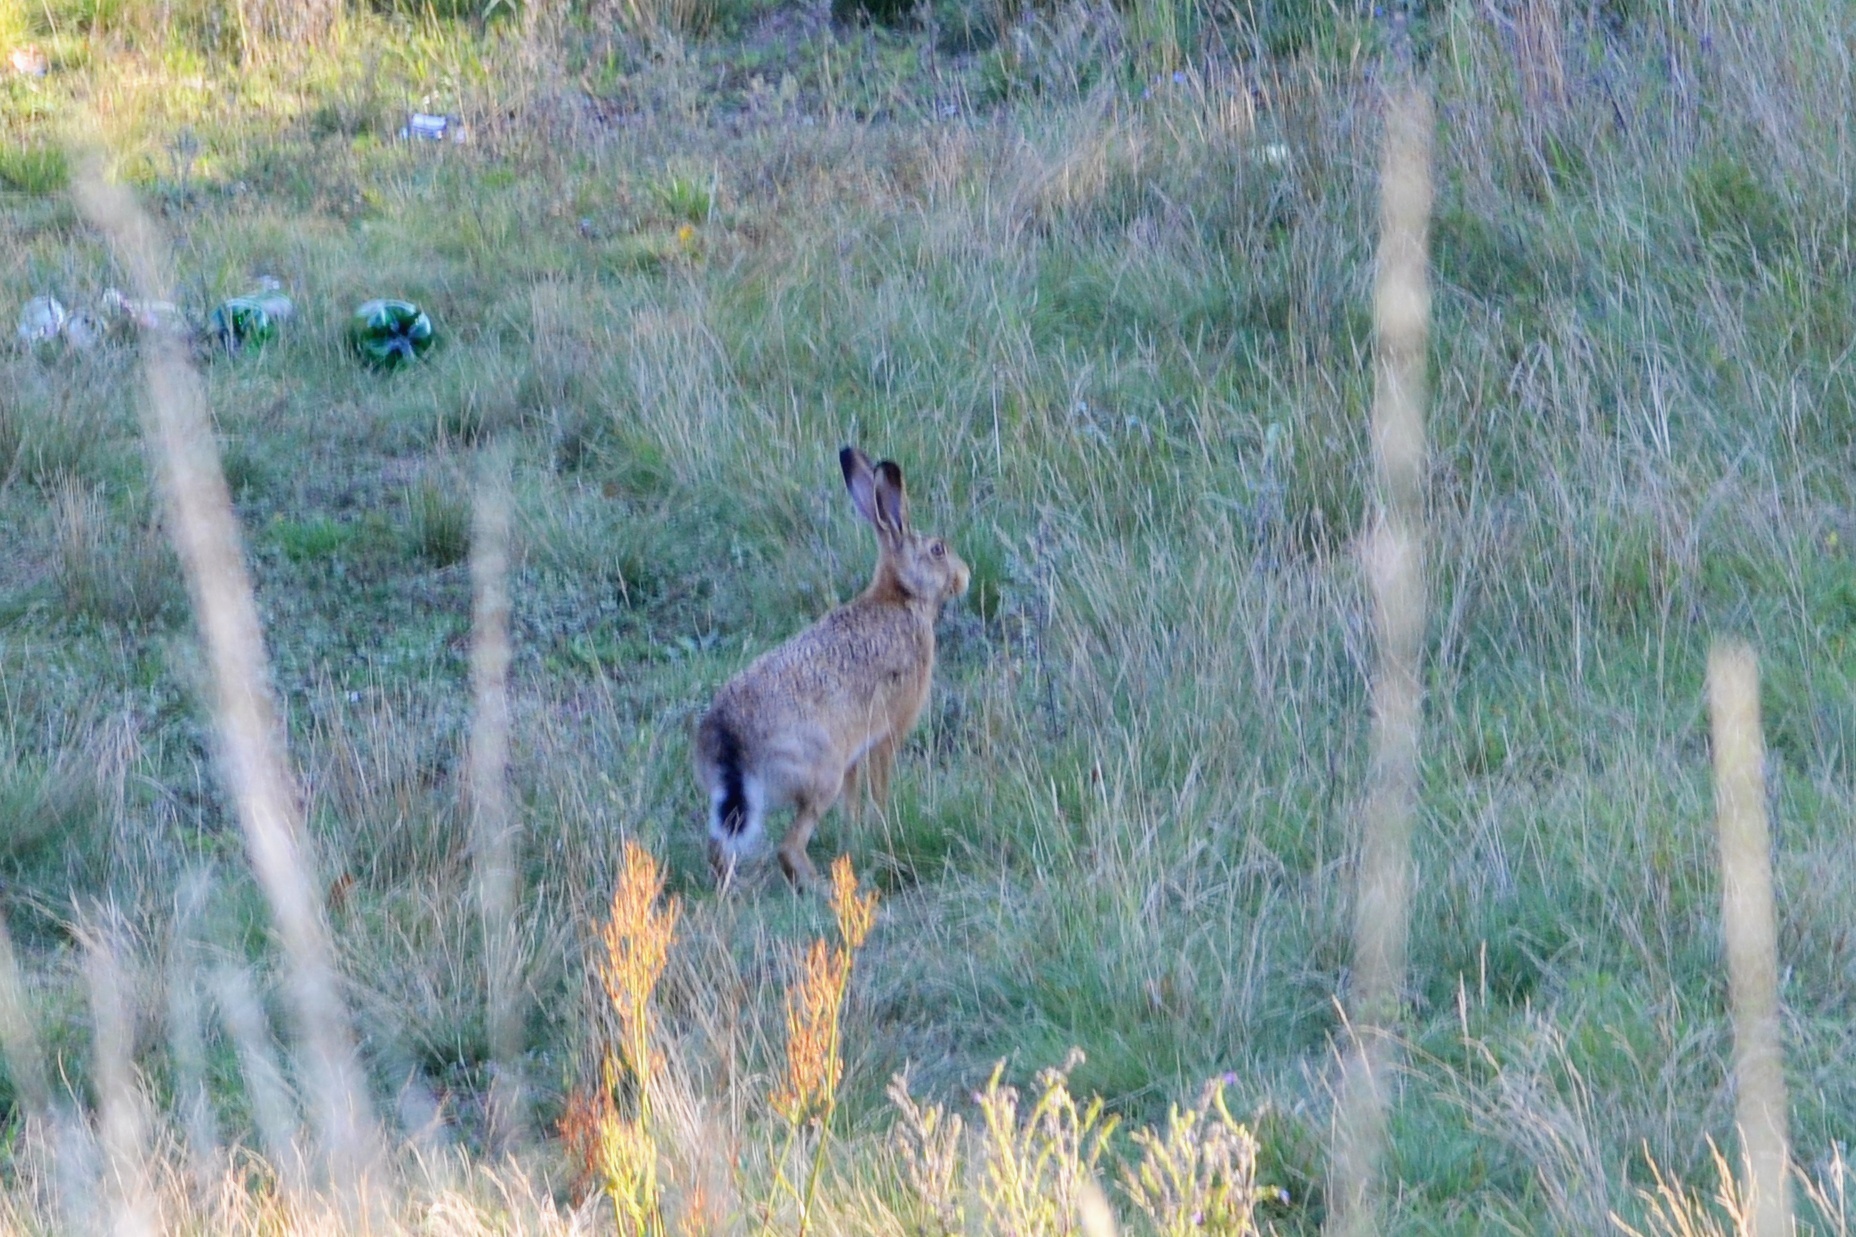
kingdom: Animalia
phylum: Chordata
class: Mammalia
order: Lagomorpha
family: Leporidae
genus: Lepus
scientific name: Lepus europaeus
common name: European hare
